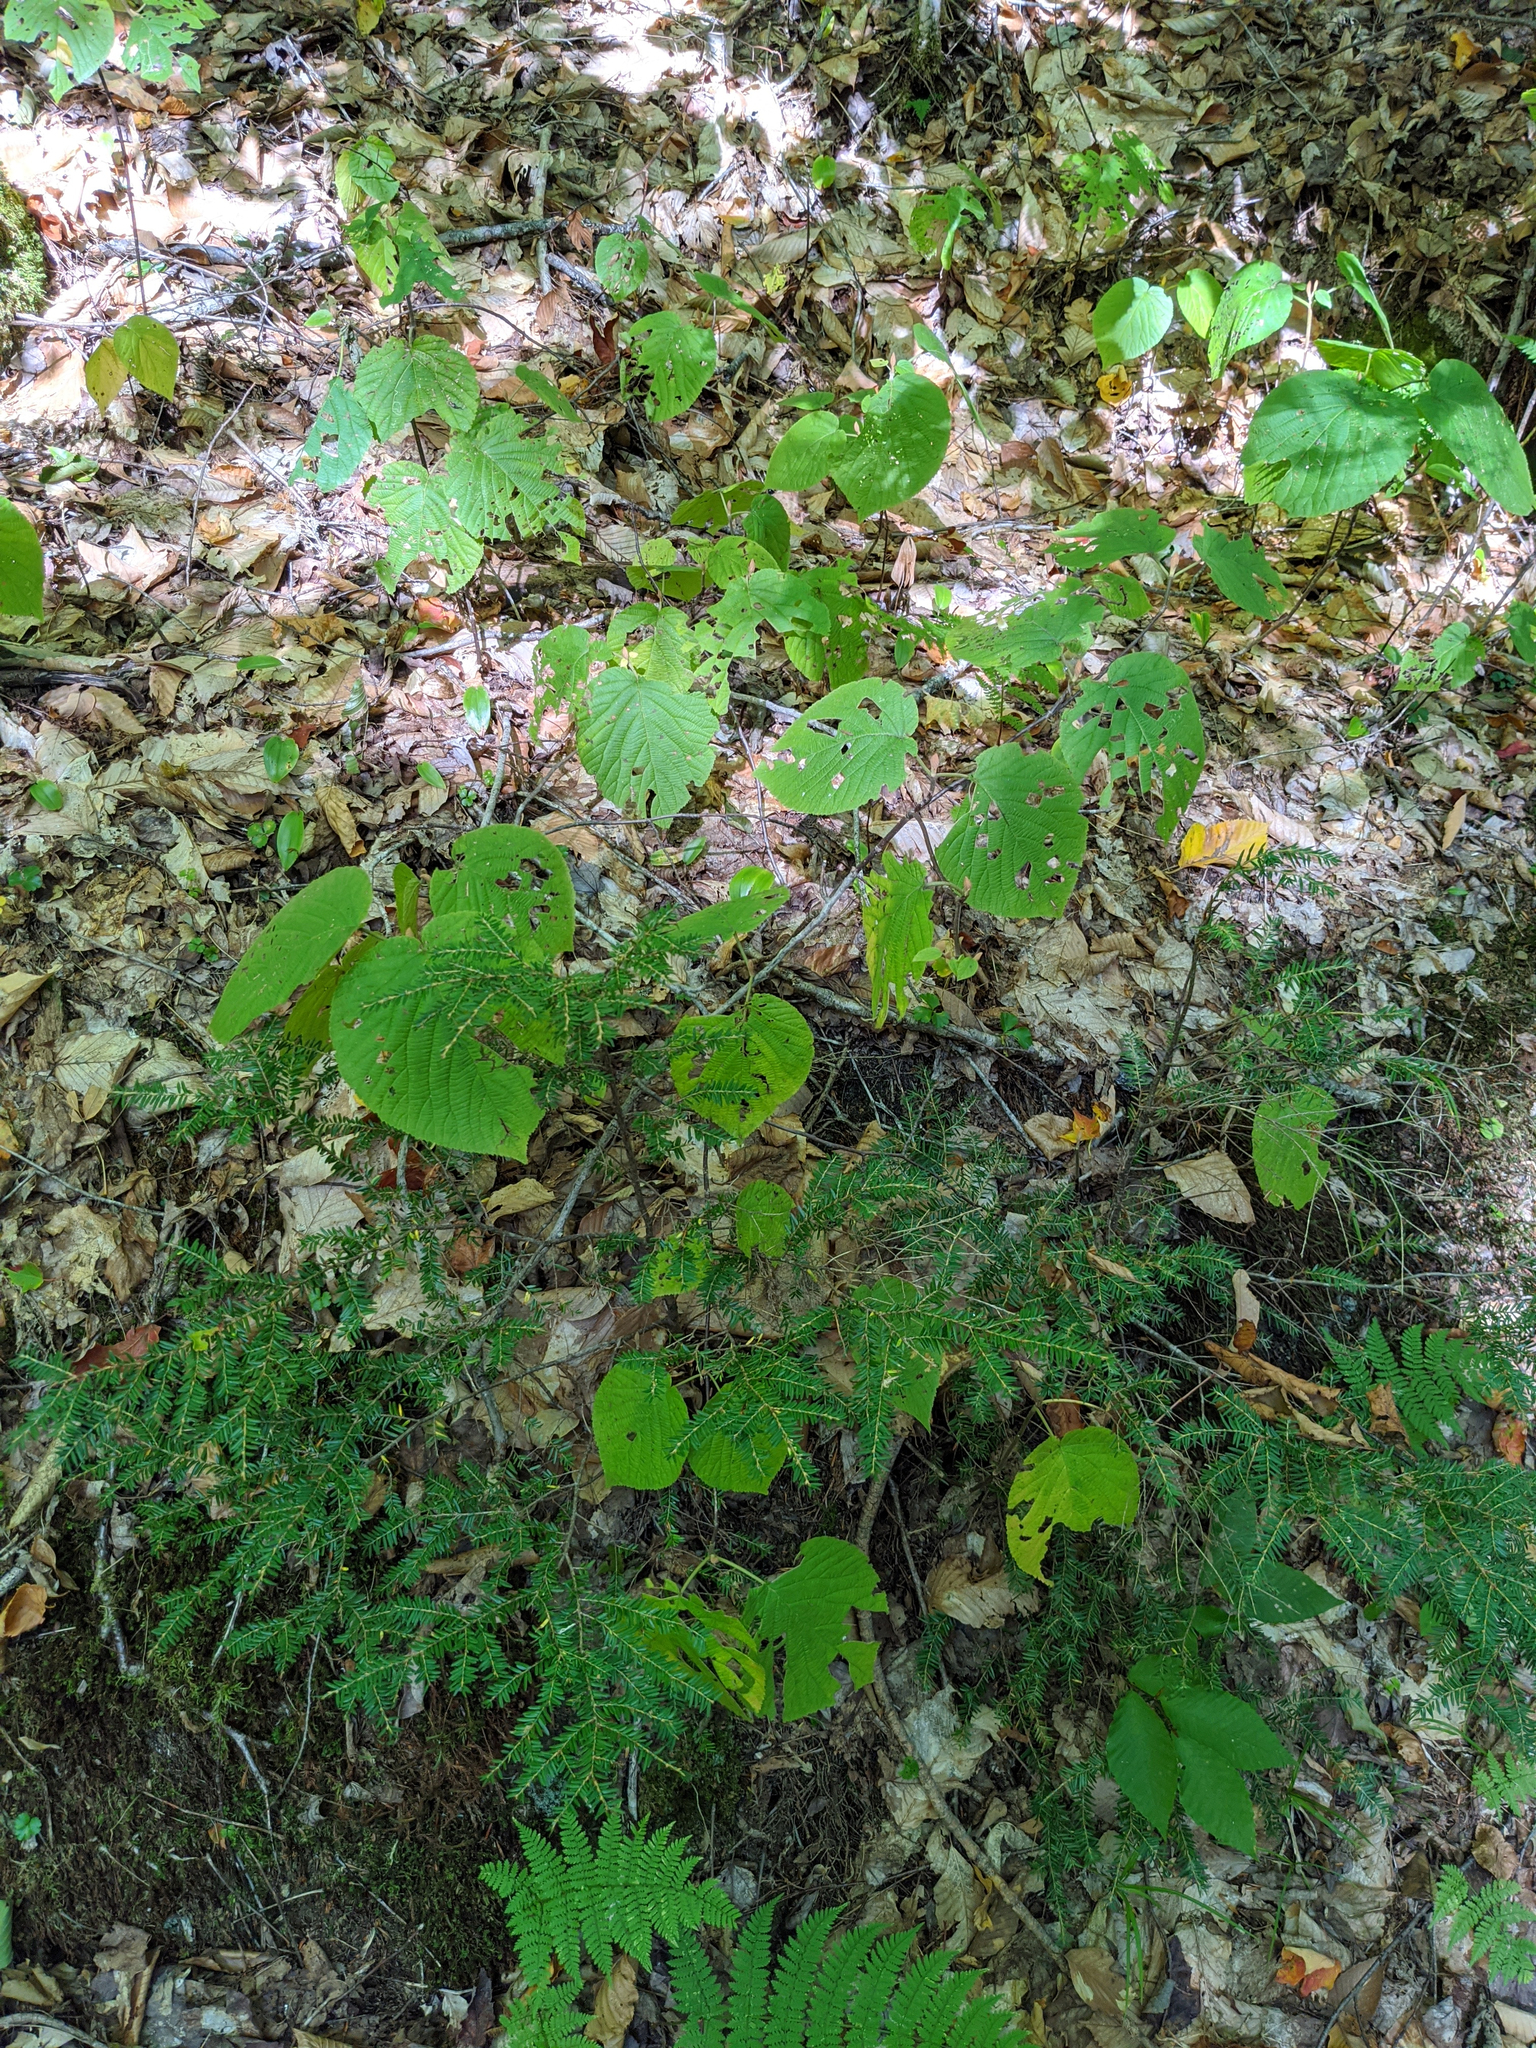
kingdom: Plantae
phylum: Tracheophyta
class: Magnoliopsida
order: Dipsacales
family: Viburnaceae
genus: Viburnum
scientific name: Viburnum lantanoides
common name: Hobblebush
